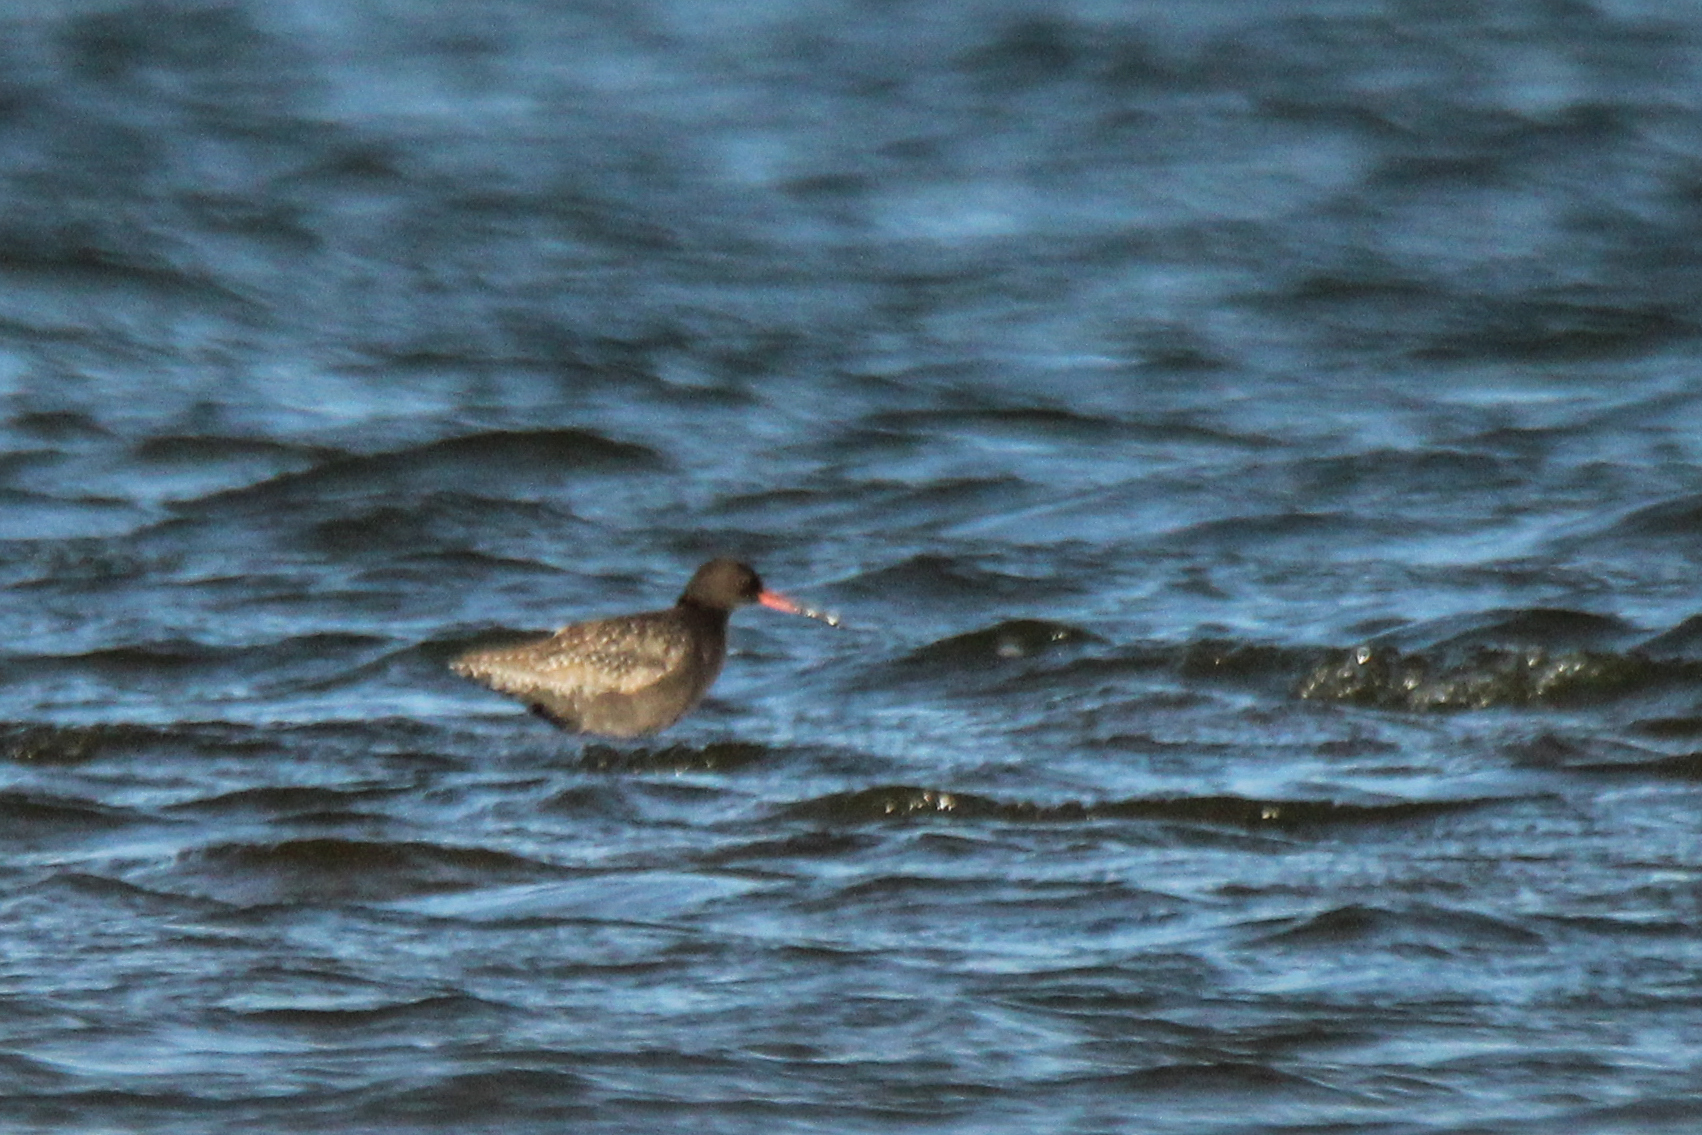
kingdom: Animalia
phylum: Chordata
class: Aves
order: Charadriiformes
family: Scolopacidae
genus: Tringa
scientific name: Tringa erythropus
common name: Spotted redshank
